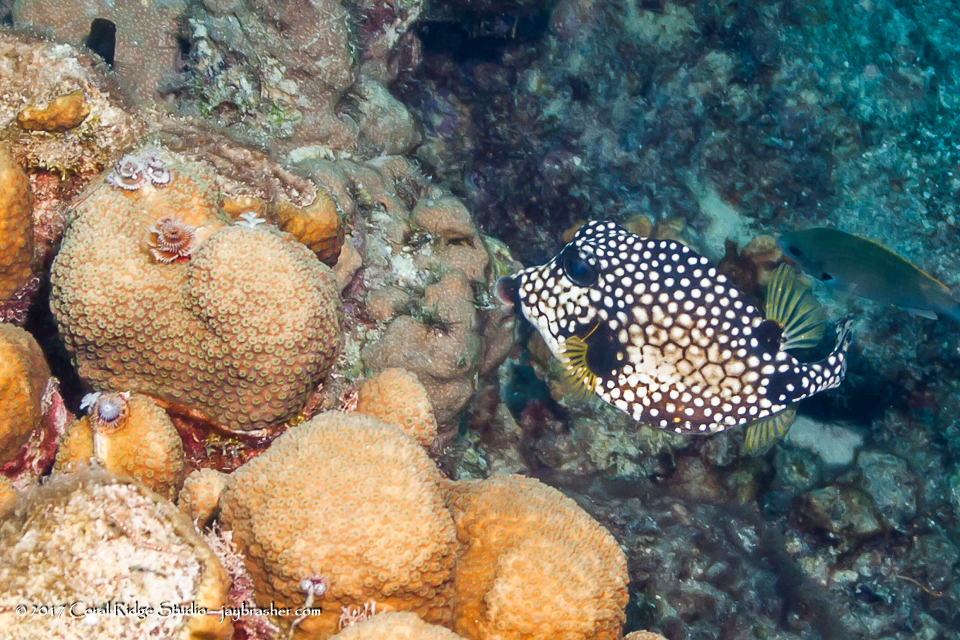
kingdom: Animalia
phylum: Chordata
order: Tetraodontiformes
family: Ostraciidae
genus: Lactophrys
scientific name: Lactophrys triqueter
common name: Smooth trunkfish
